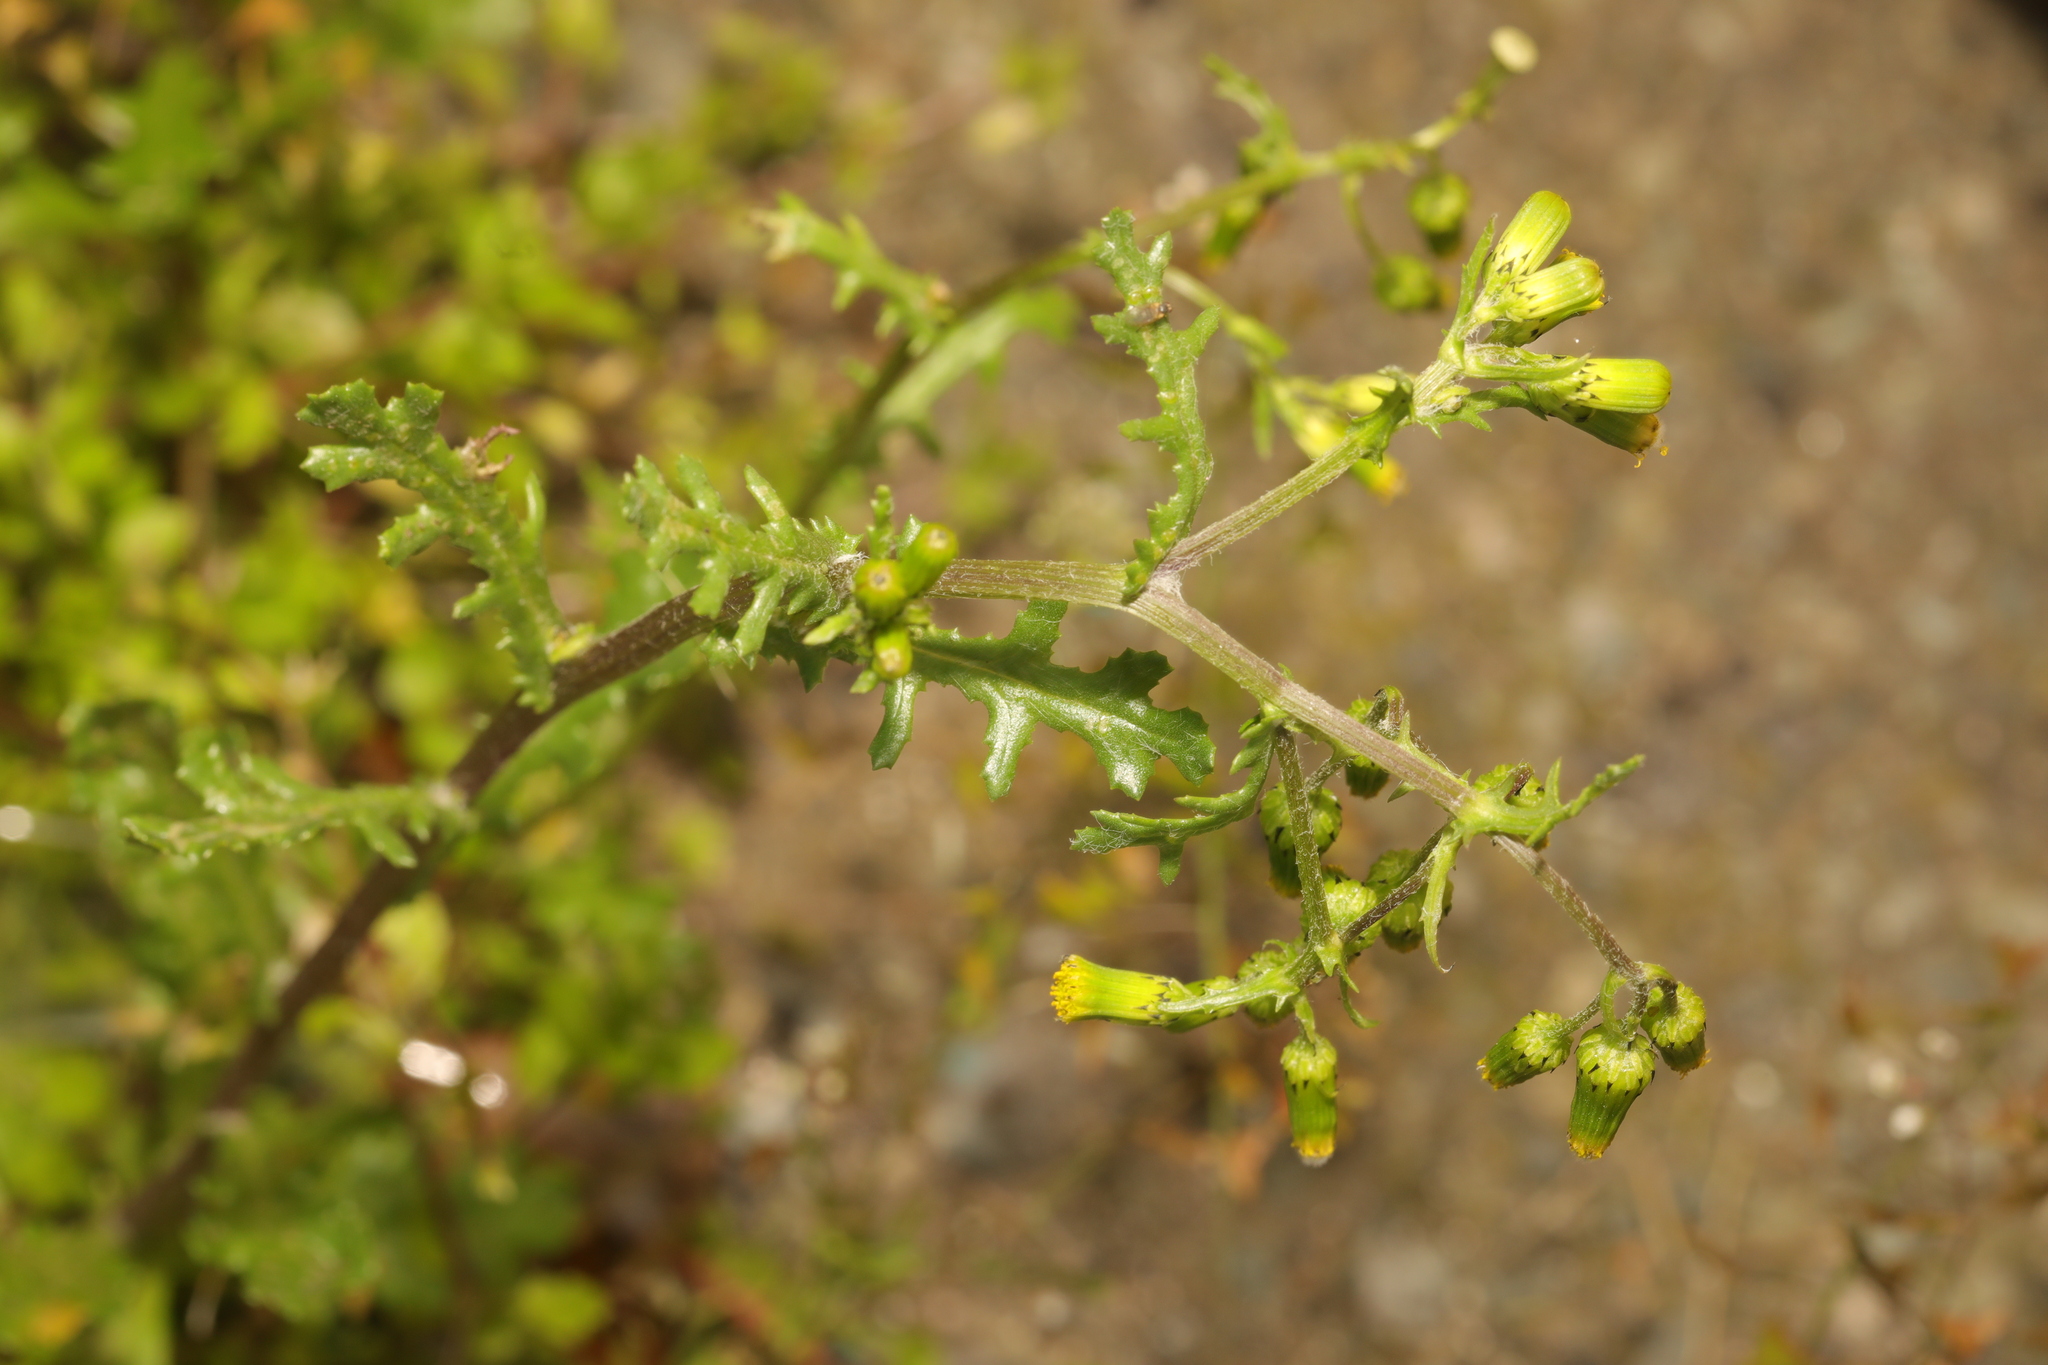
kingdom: Plantae
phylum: Tracheophyta
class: Magnoliopsida
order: Asterales
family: Asteraceae
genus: Senecio
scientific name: Senecio vulgaris
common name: Old-man-in-the-spring
